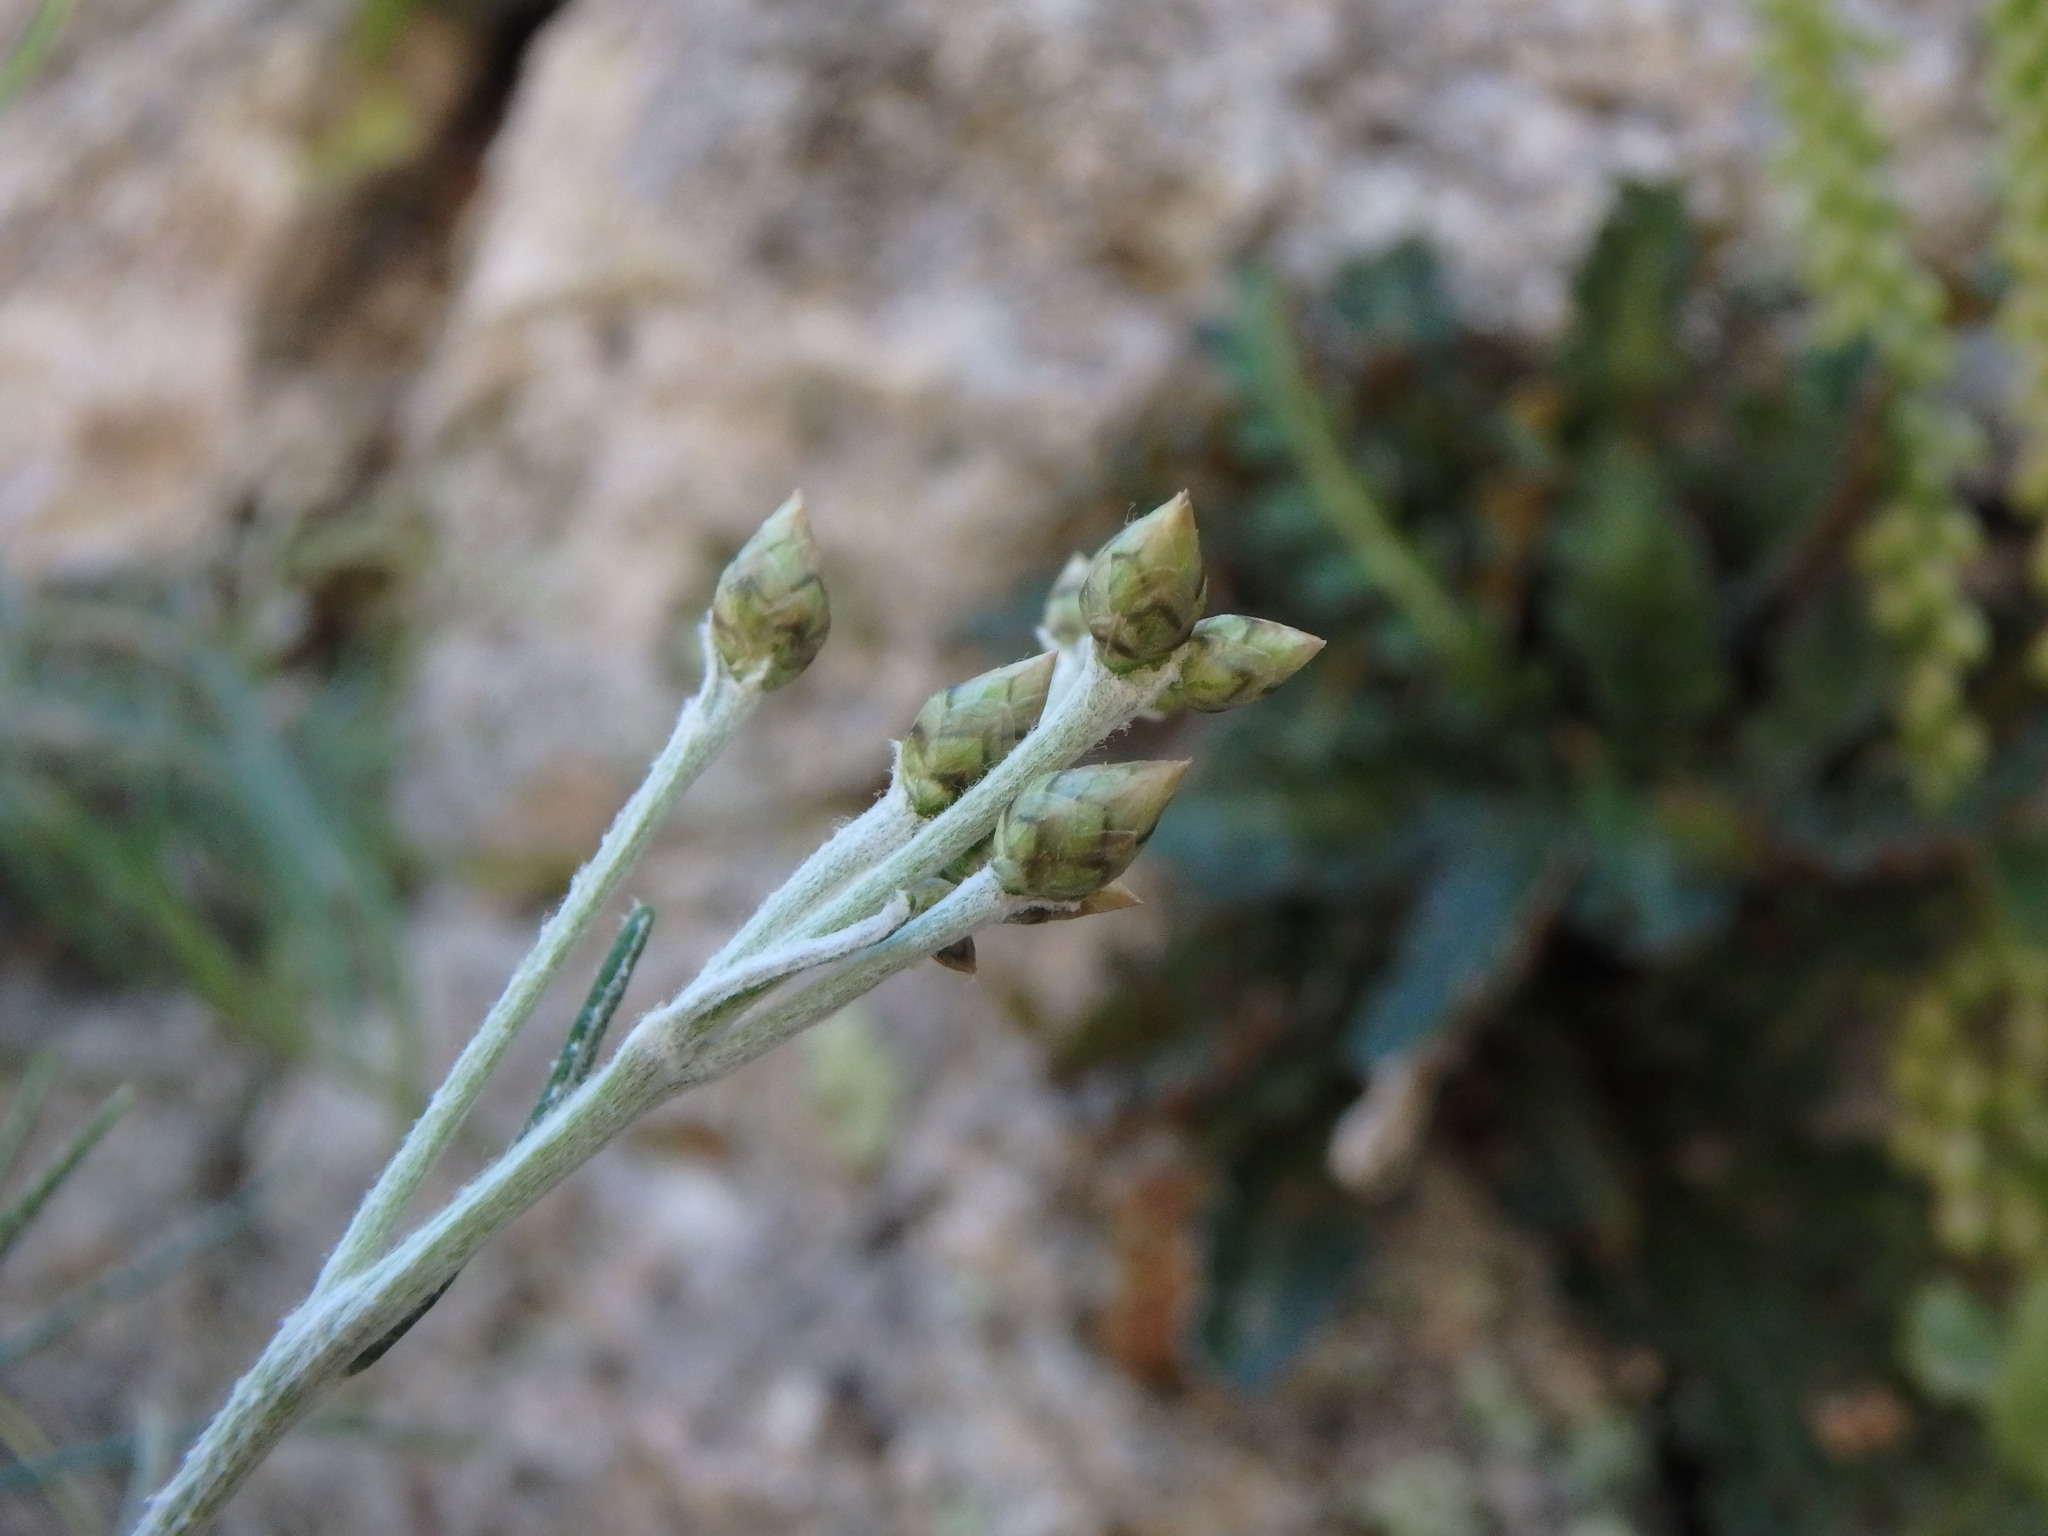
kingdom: Plantae
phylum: Tracheophyta
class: Magnoliopsida
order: Asterales
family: Asteraceae
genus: Phagnalon
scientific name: Phagnalon sordidum
